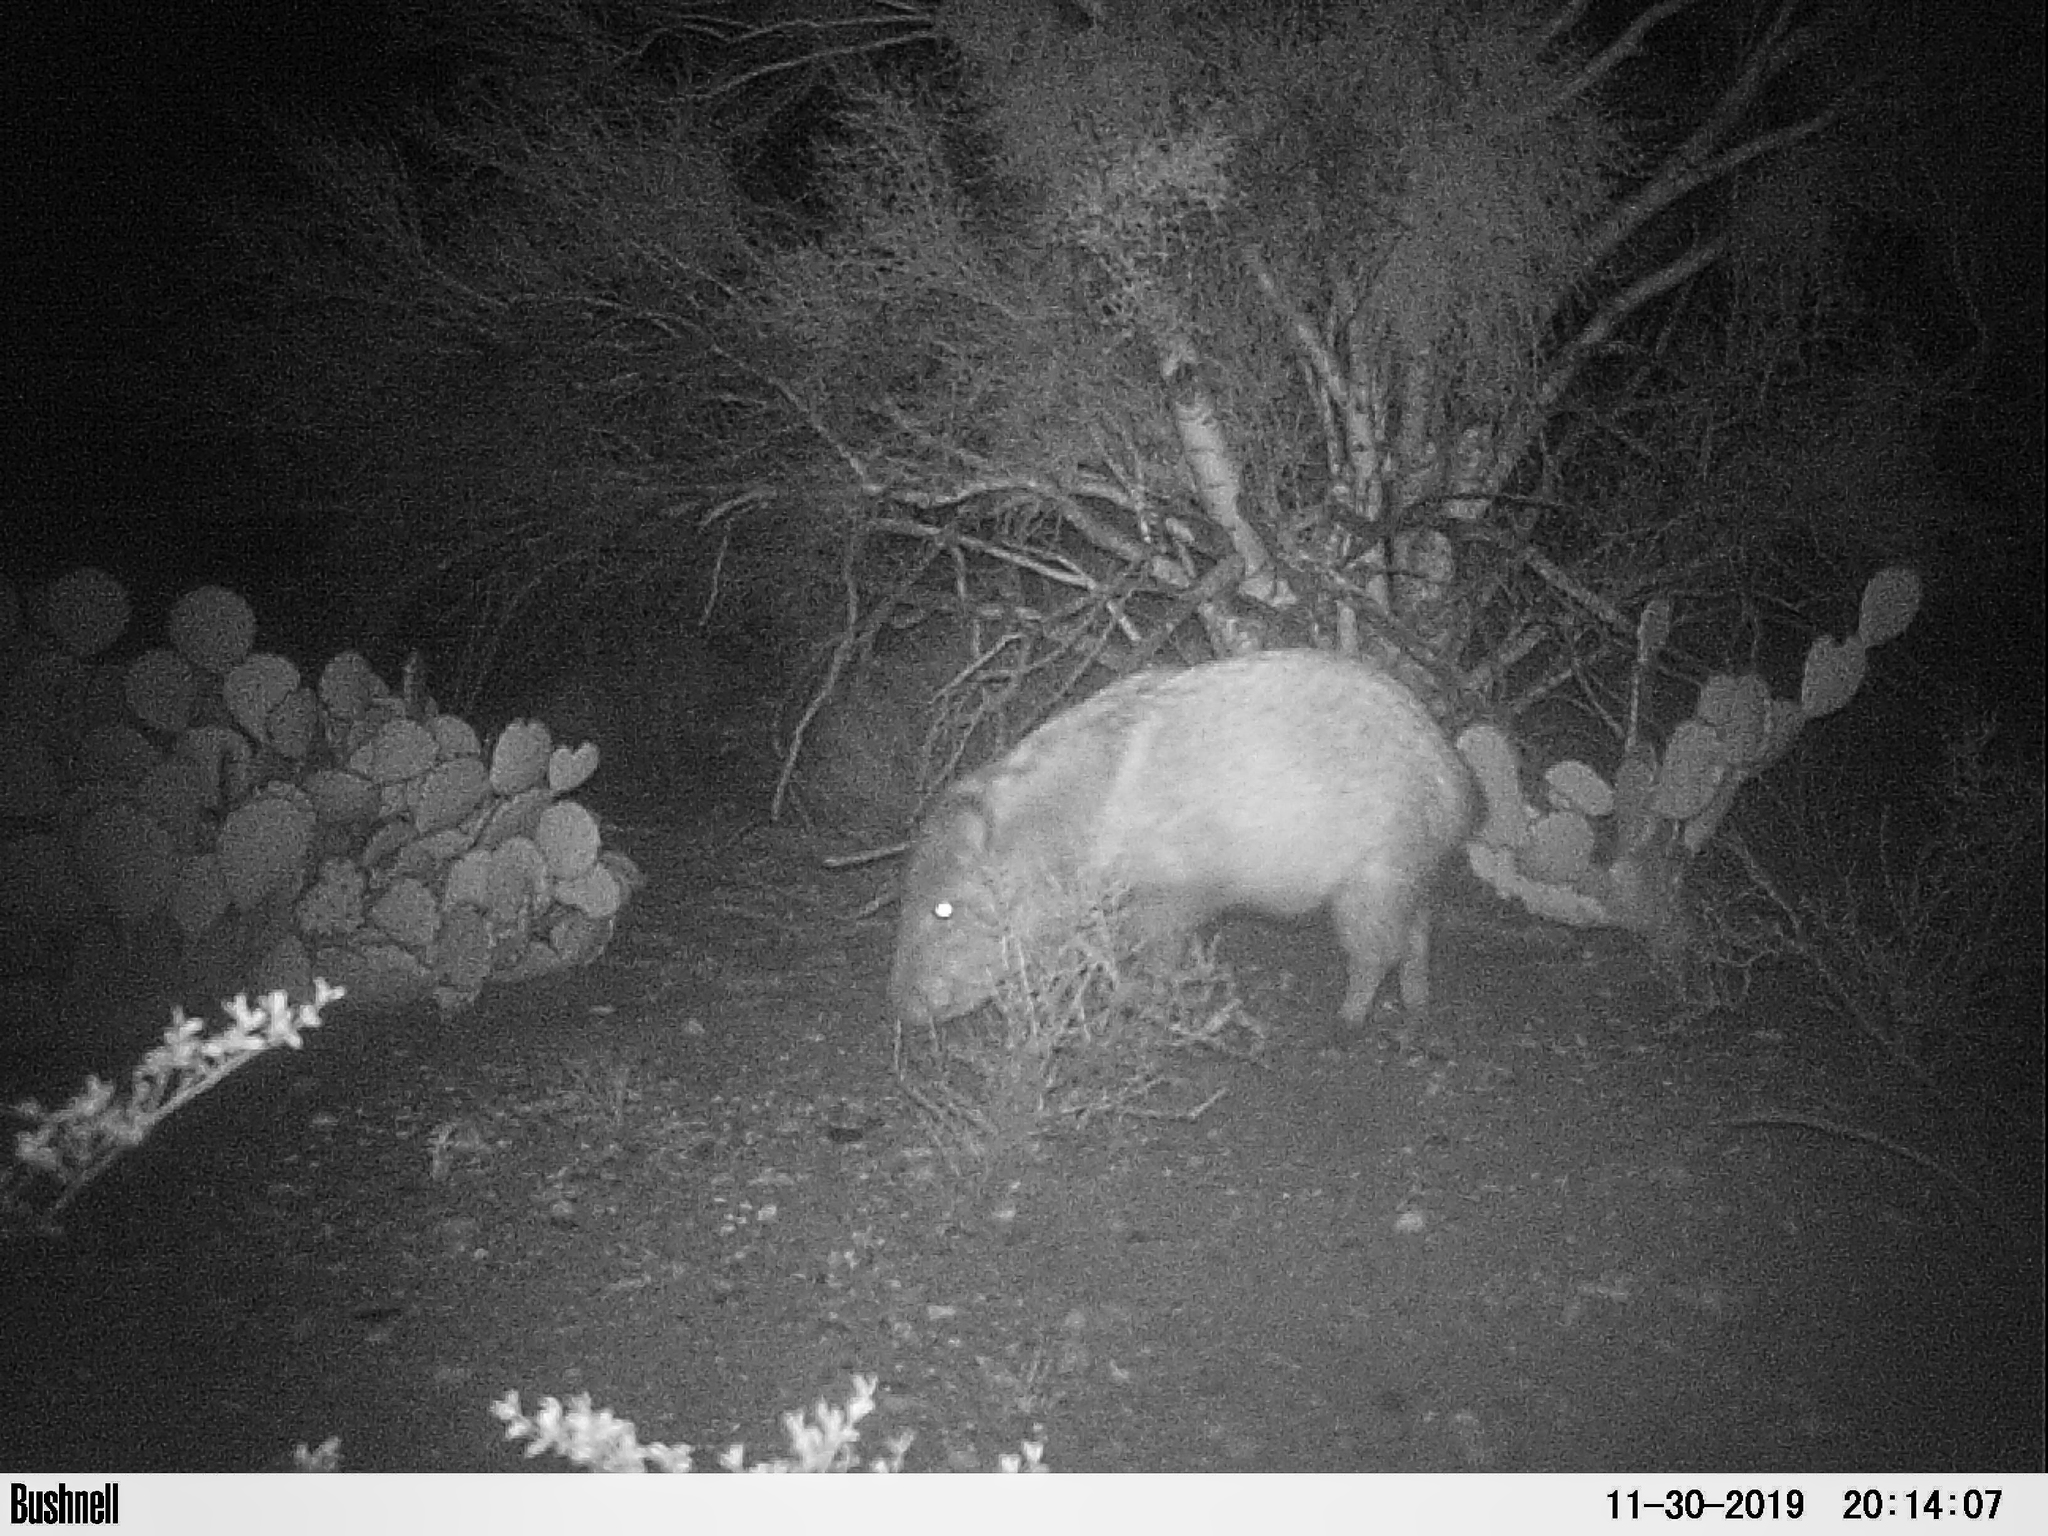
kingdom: Animalia
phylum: Chordata
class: Mammalia
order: Artiodactyla
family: Tayassuidae
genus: Pecari
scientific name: Pecari tajacu
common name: Collared peccary
